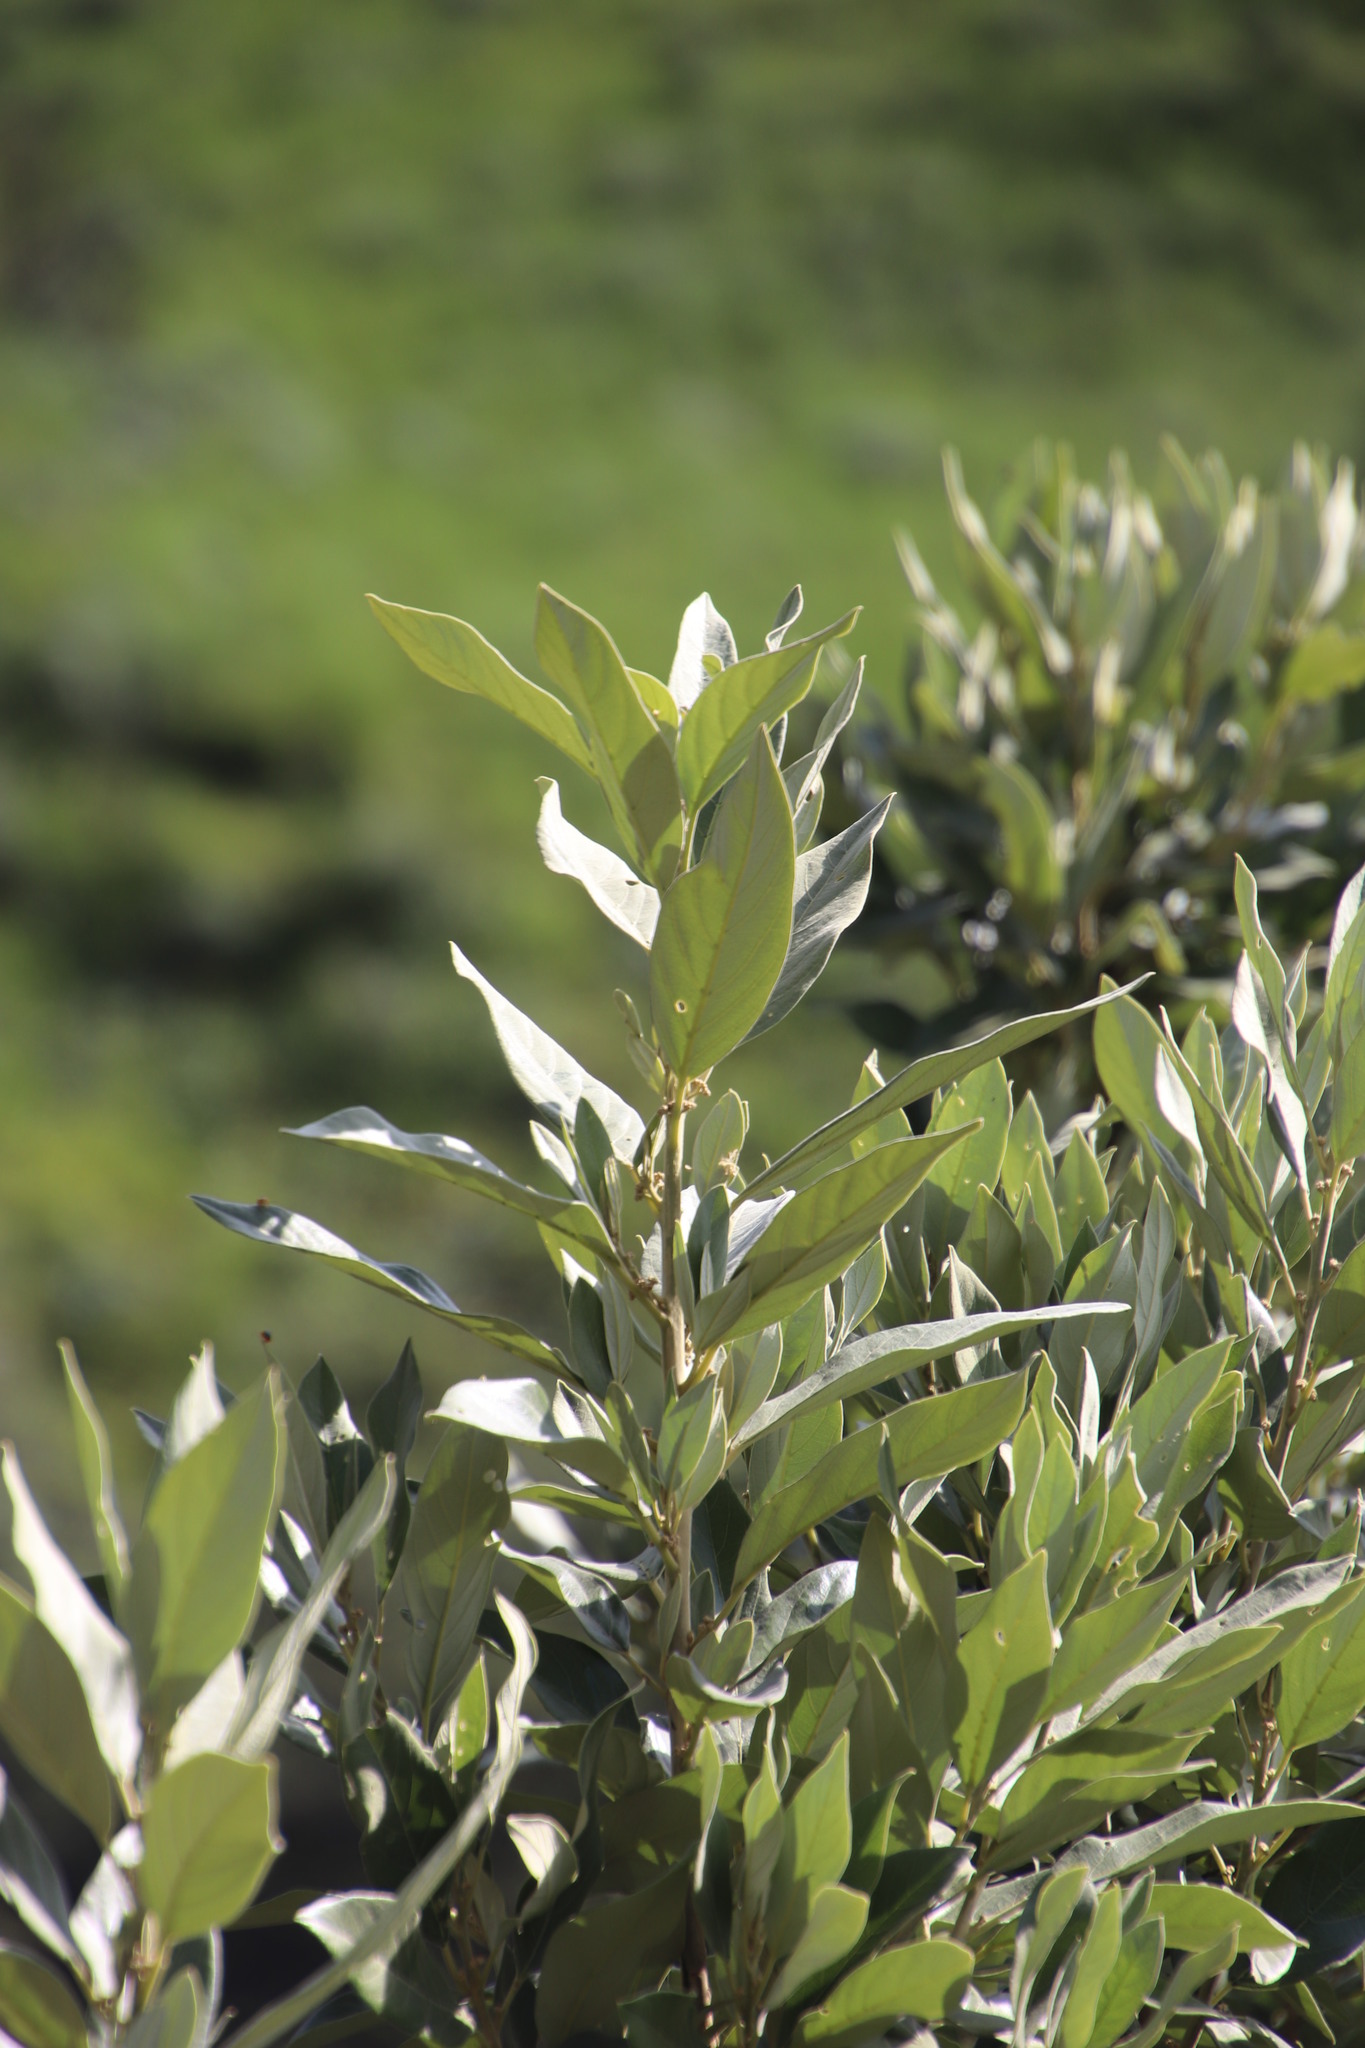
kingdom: Plantae
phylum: Tracheophyta
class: Magnoliopsida
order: Malpighiales
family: Achariaceae
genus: Kiggelaria
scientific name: Kiggelaria africana
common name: Wild peach
